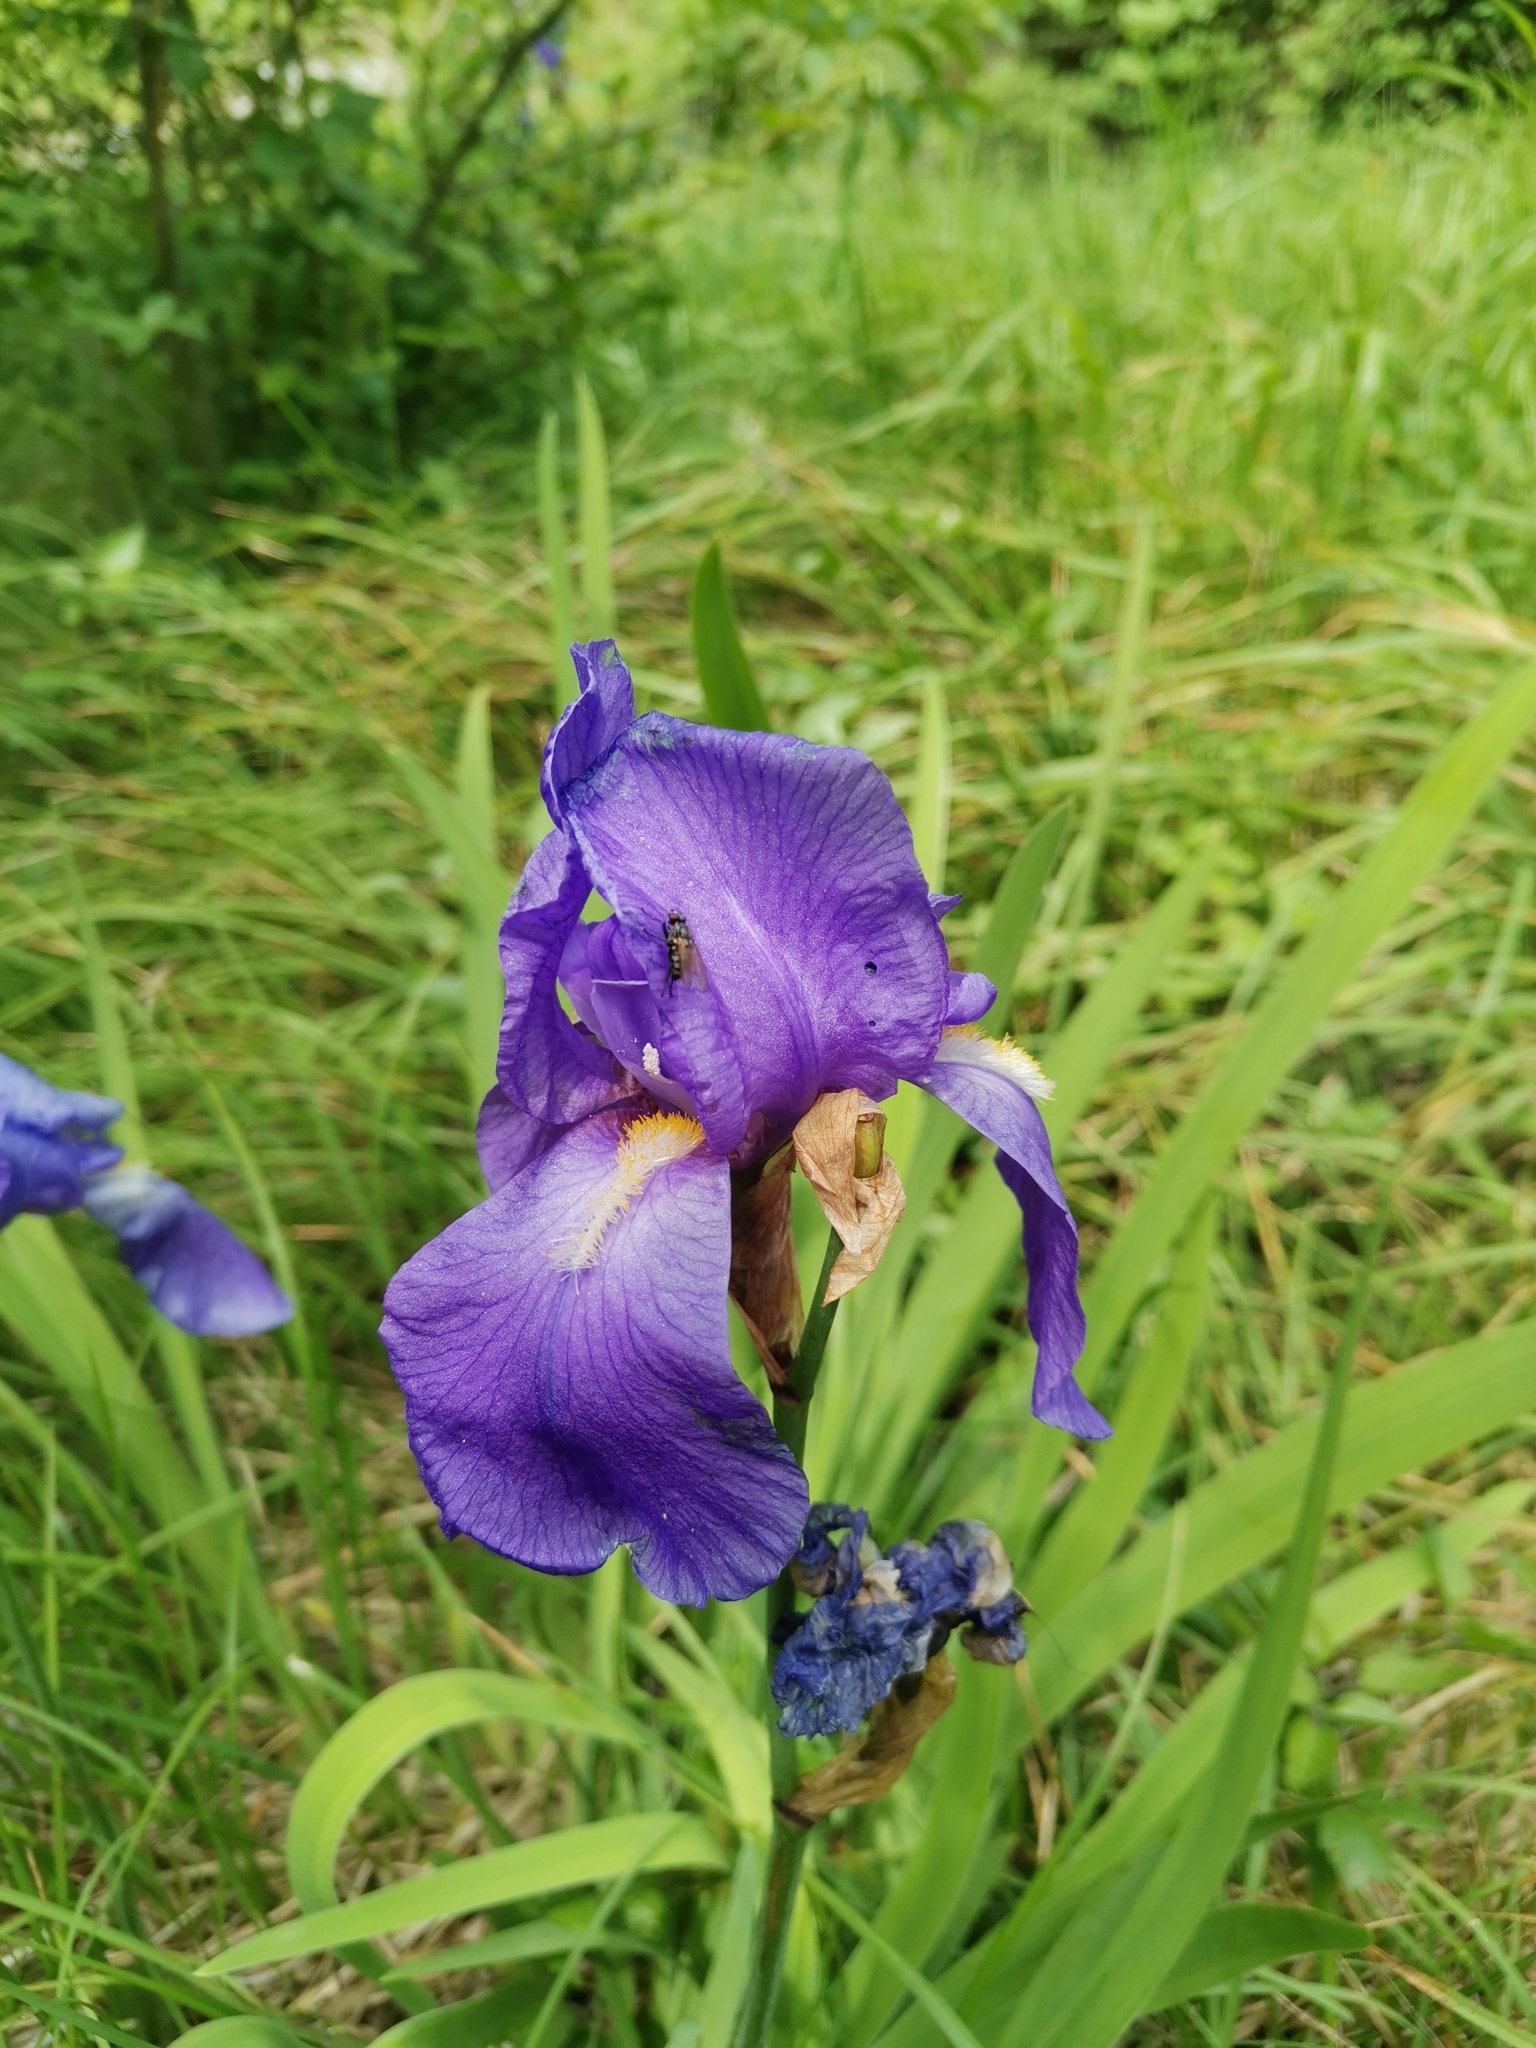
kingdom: Plantae
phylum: Tracheophyta
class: Liliopsida
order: Asparagales
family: Iridaceae
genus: Iris
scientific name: Iris pallida
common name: Sweet iris
